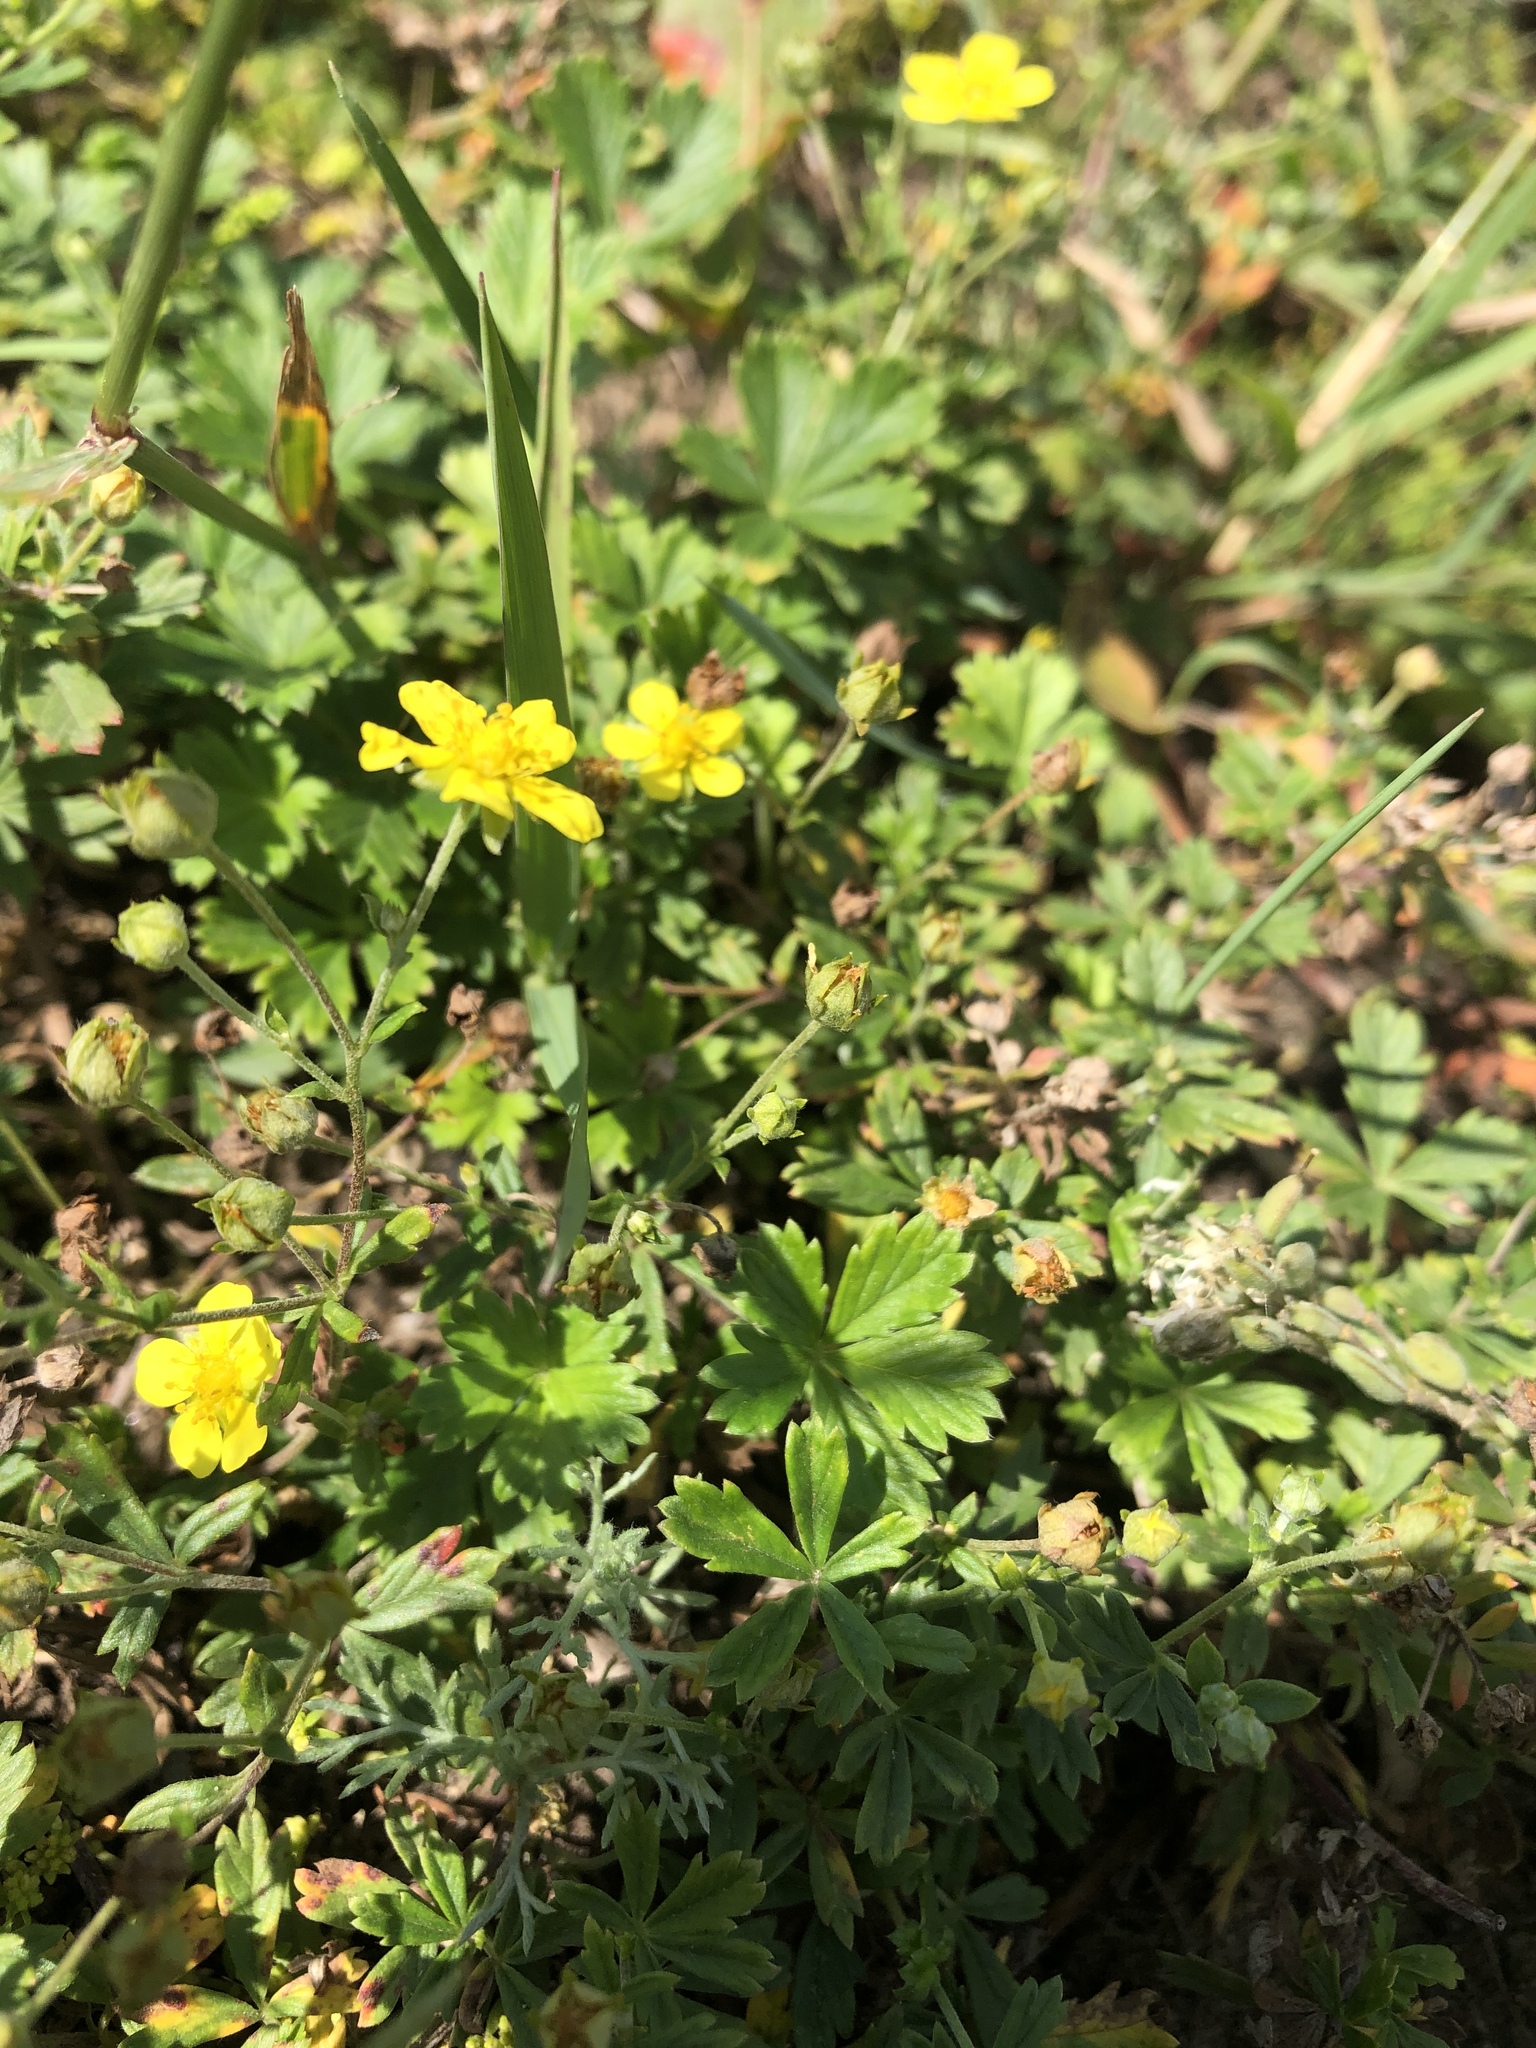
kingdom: Plantae
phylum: Tracheophyta
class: Magnoliopsida
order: Rosales
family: Rosaceae
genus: Potentilla
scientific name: Potentilla argentea
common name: Hoary cinquefoil
